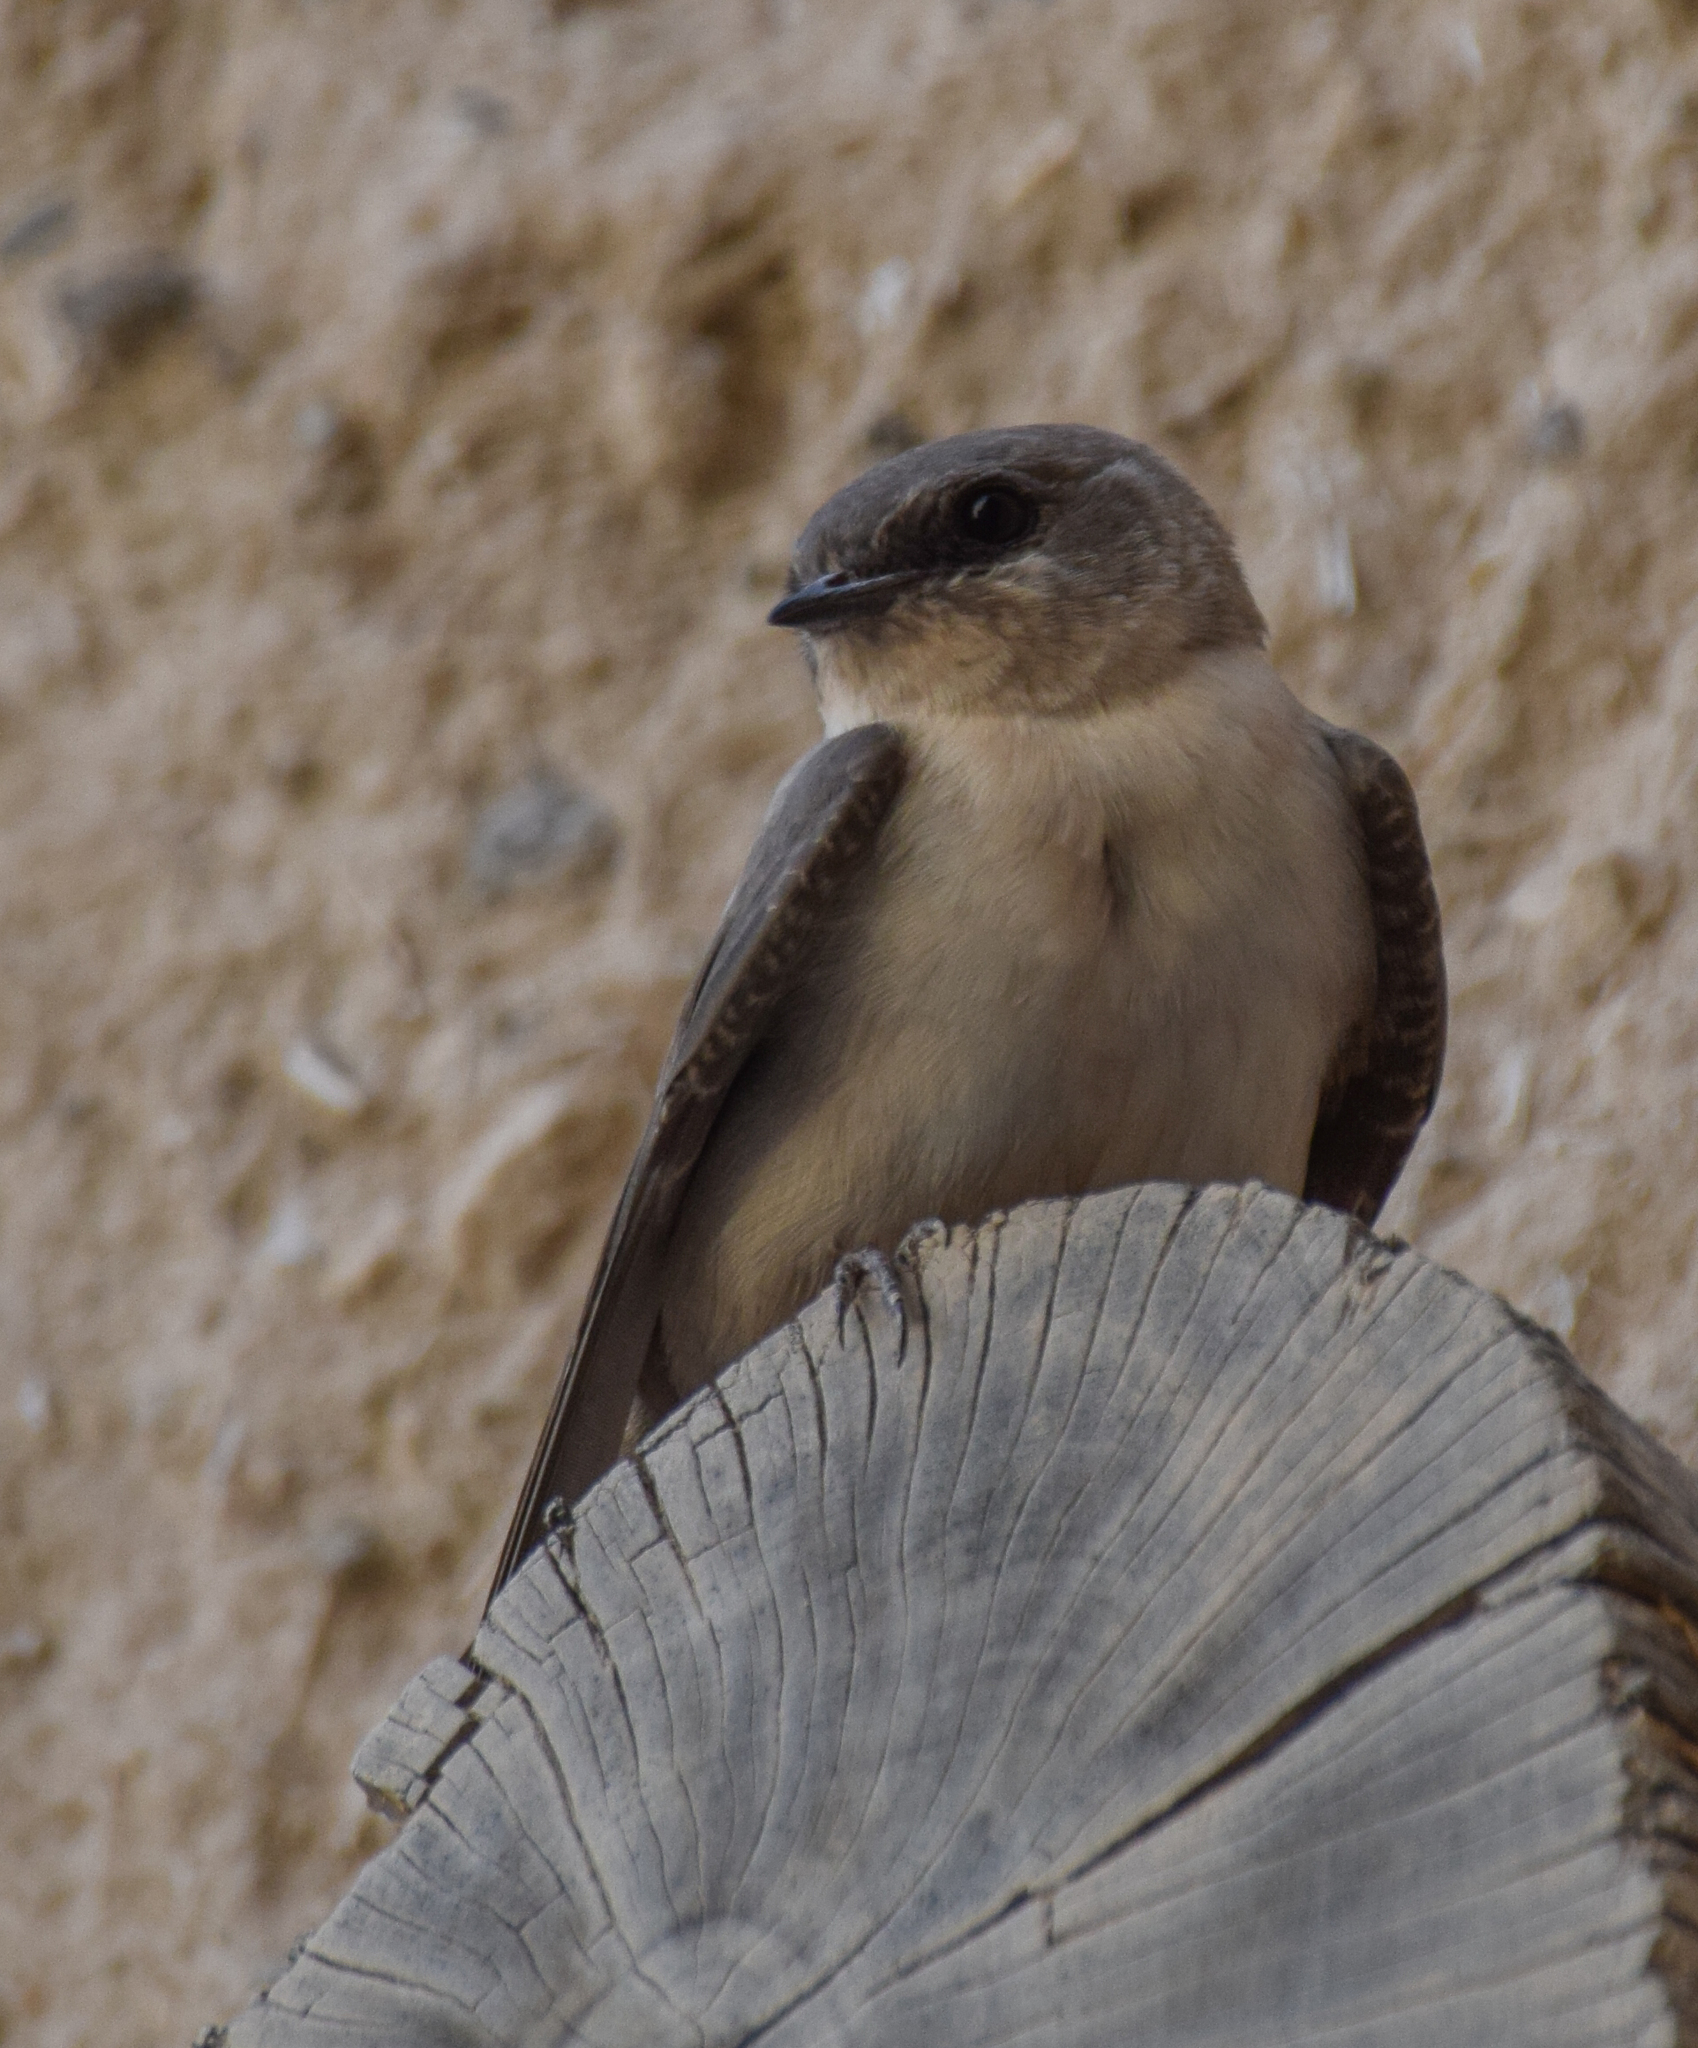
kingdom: Animalia
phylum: Chordata
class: Aves
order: Passeriformes
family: Hirundinidae
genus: Ptyonoprogne
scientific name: Ptyonoprogne fuligula
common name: Rock martin
